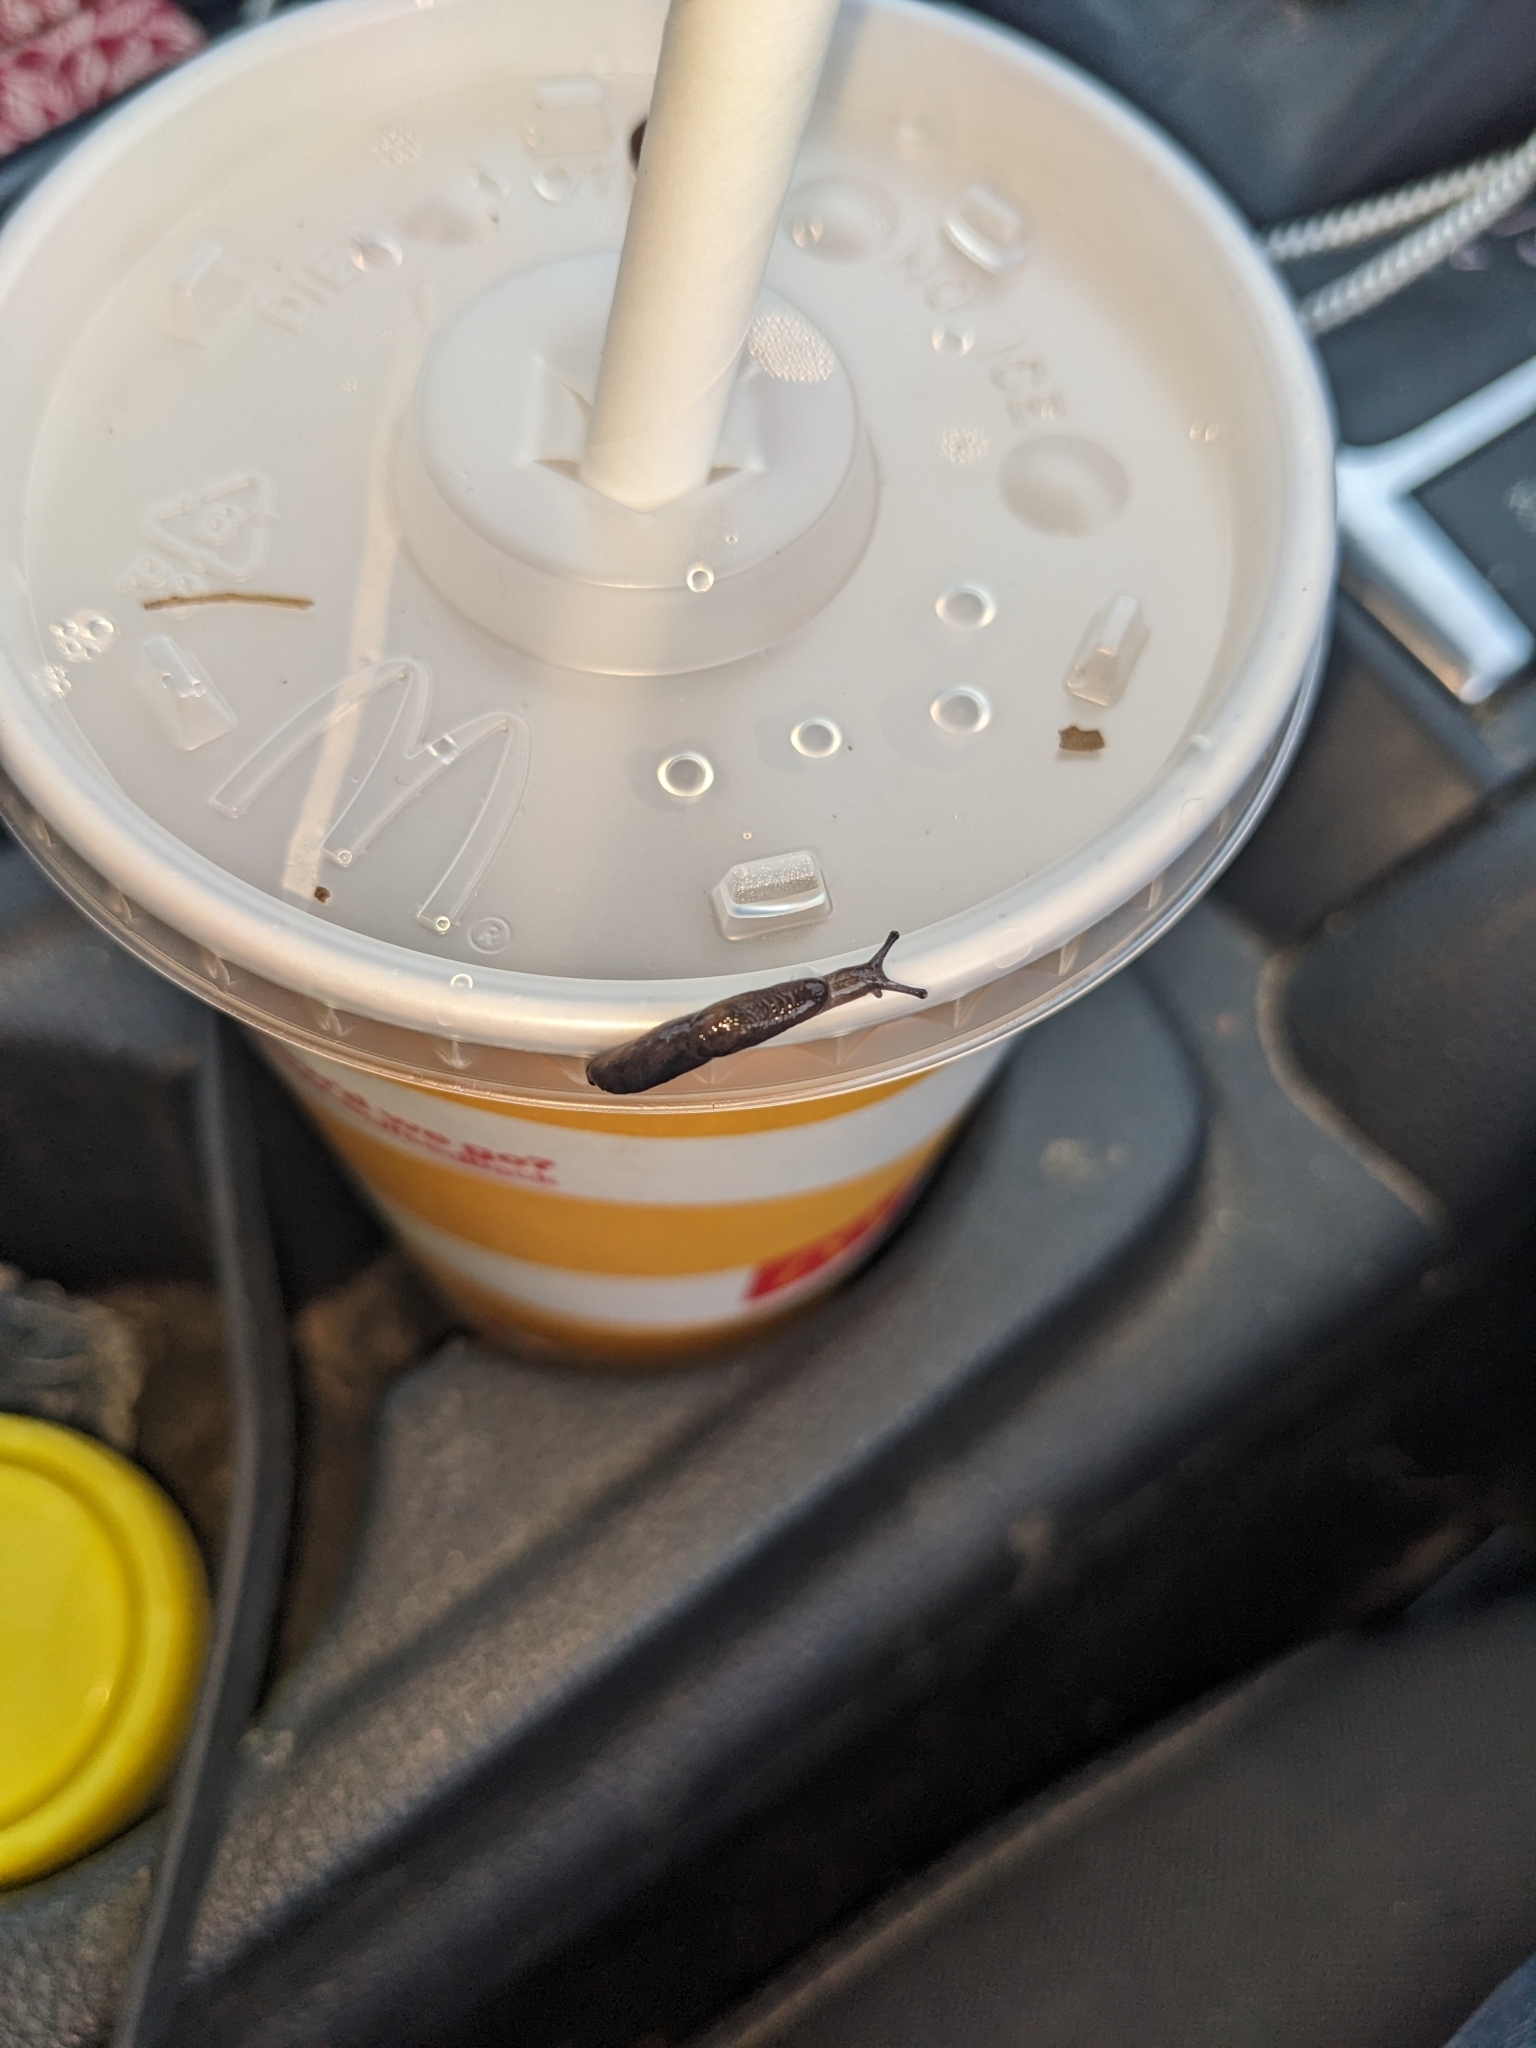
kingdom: Animalia
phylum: Mollusca
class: Gastropoda
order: Stylommatophora
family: Agriolimacidae
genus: Deroceras
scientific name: Deroceras invadens
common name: Caruana's slug
